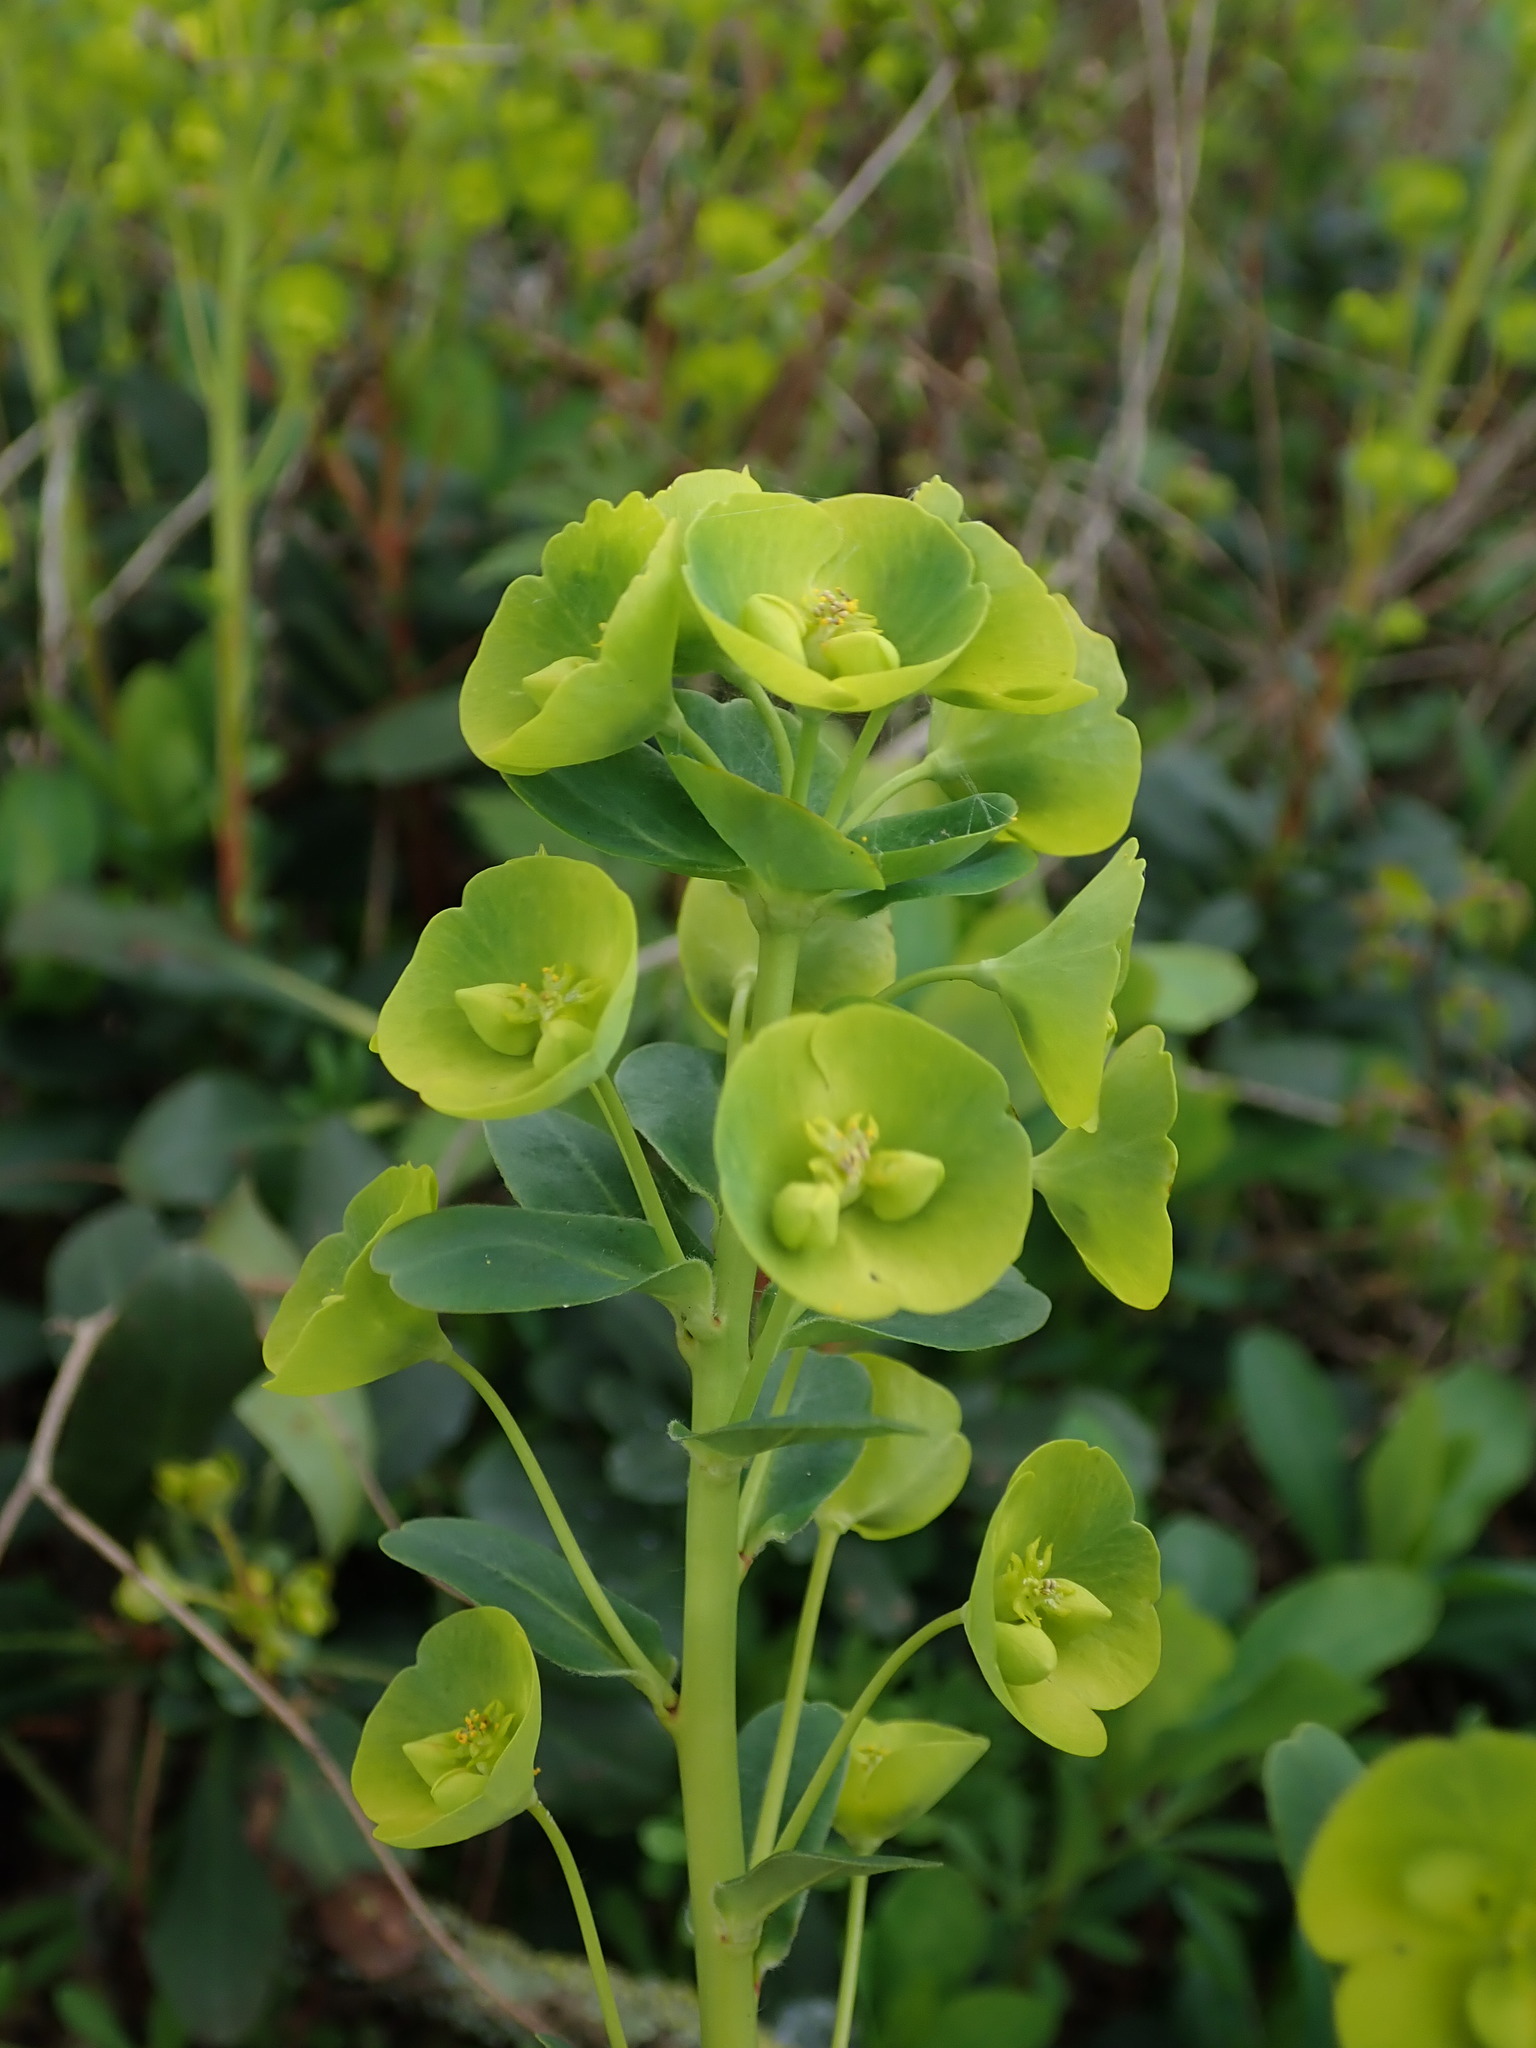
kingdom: Plantae
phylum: Tracheophyta
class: Magnoliopsida
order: Malpighiales
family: Euphorbiaceae
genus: Euphorbia
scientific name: Euphorbia amygdaloides
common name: Wood spurge
